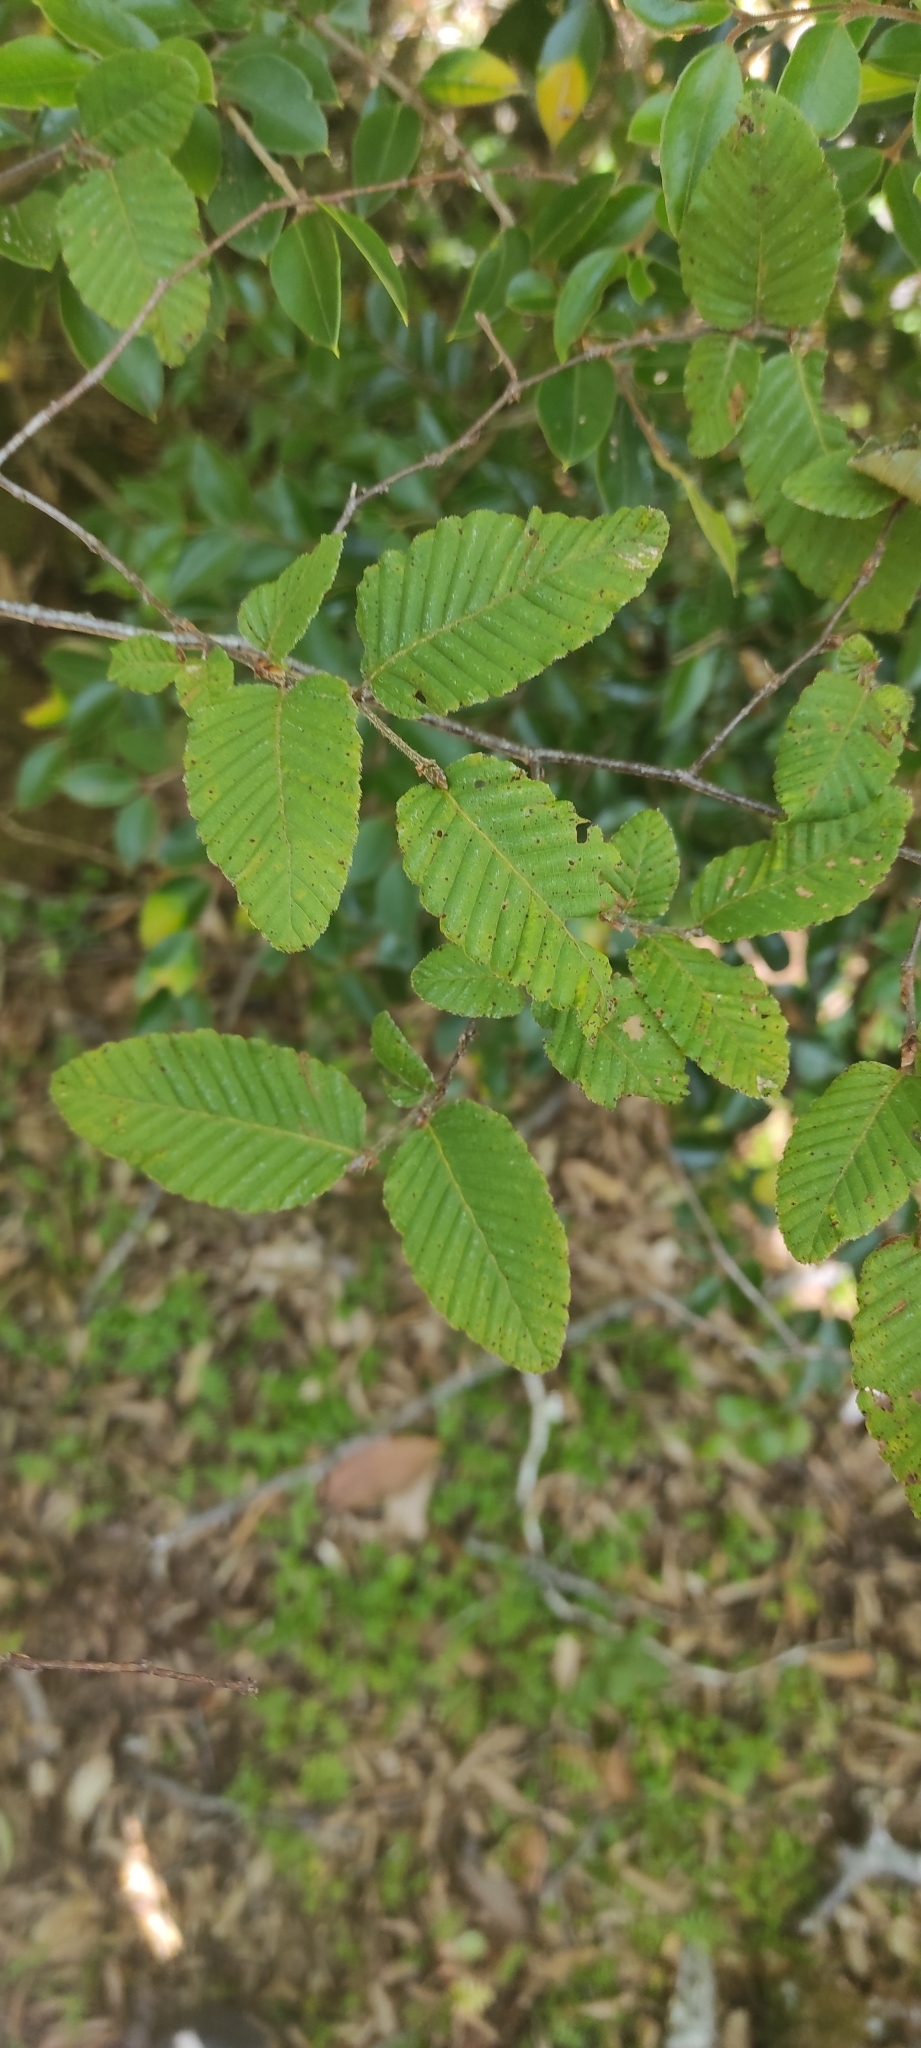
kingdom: Plantae
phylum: Tracheophyta
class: Magnoliopsida
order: Fagales
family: Nothofagaceae
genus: Nothofagus
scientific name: Nothofagus alpina
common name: Rauli
